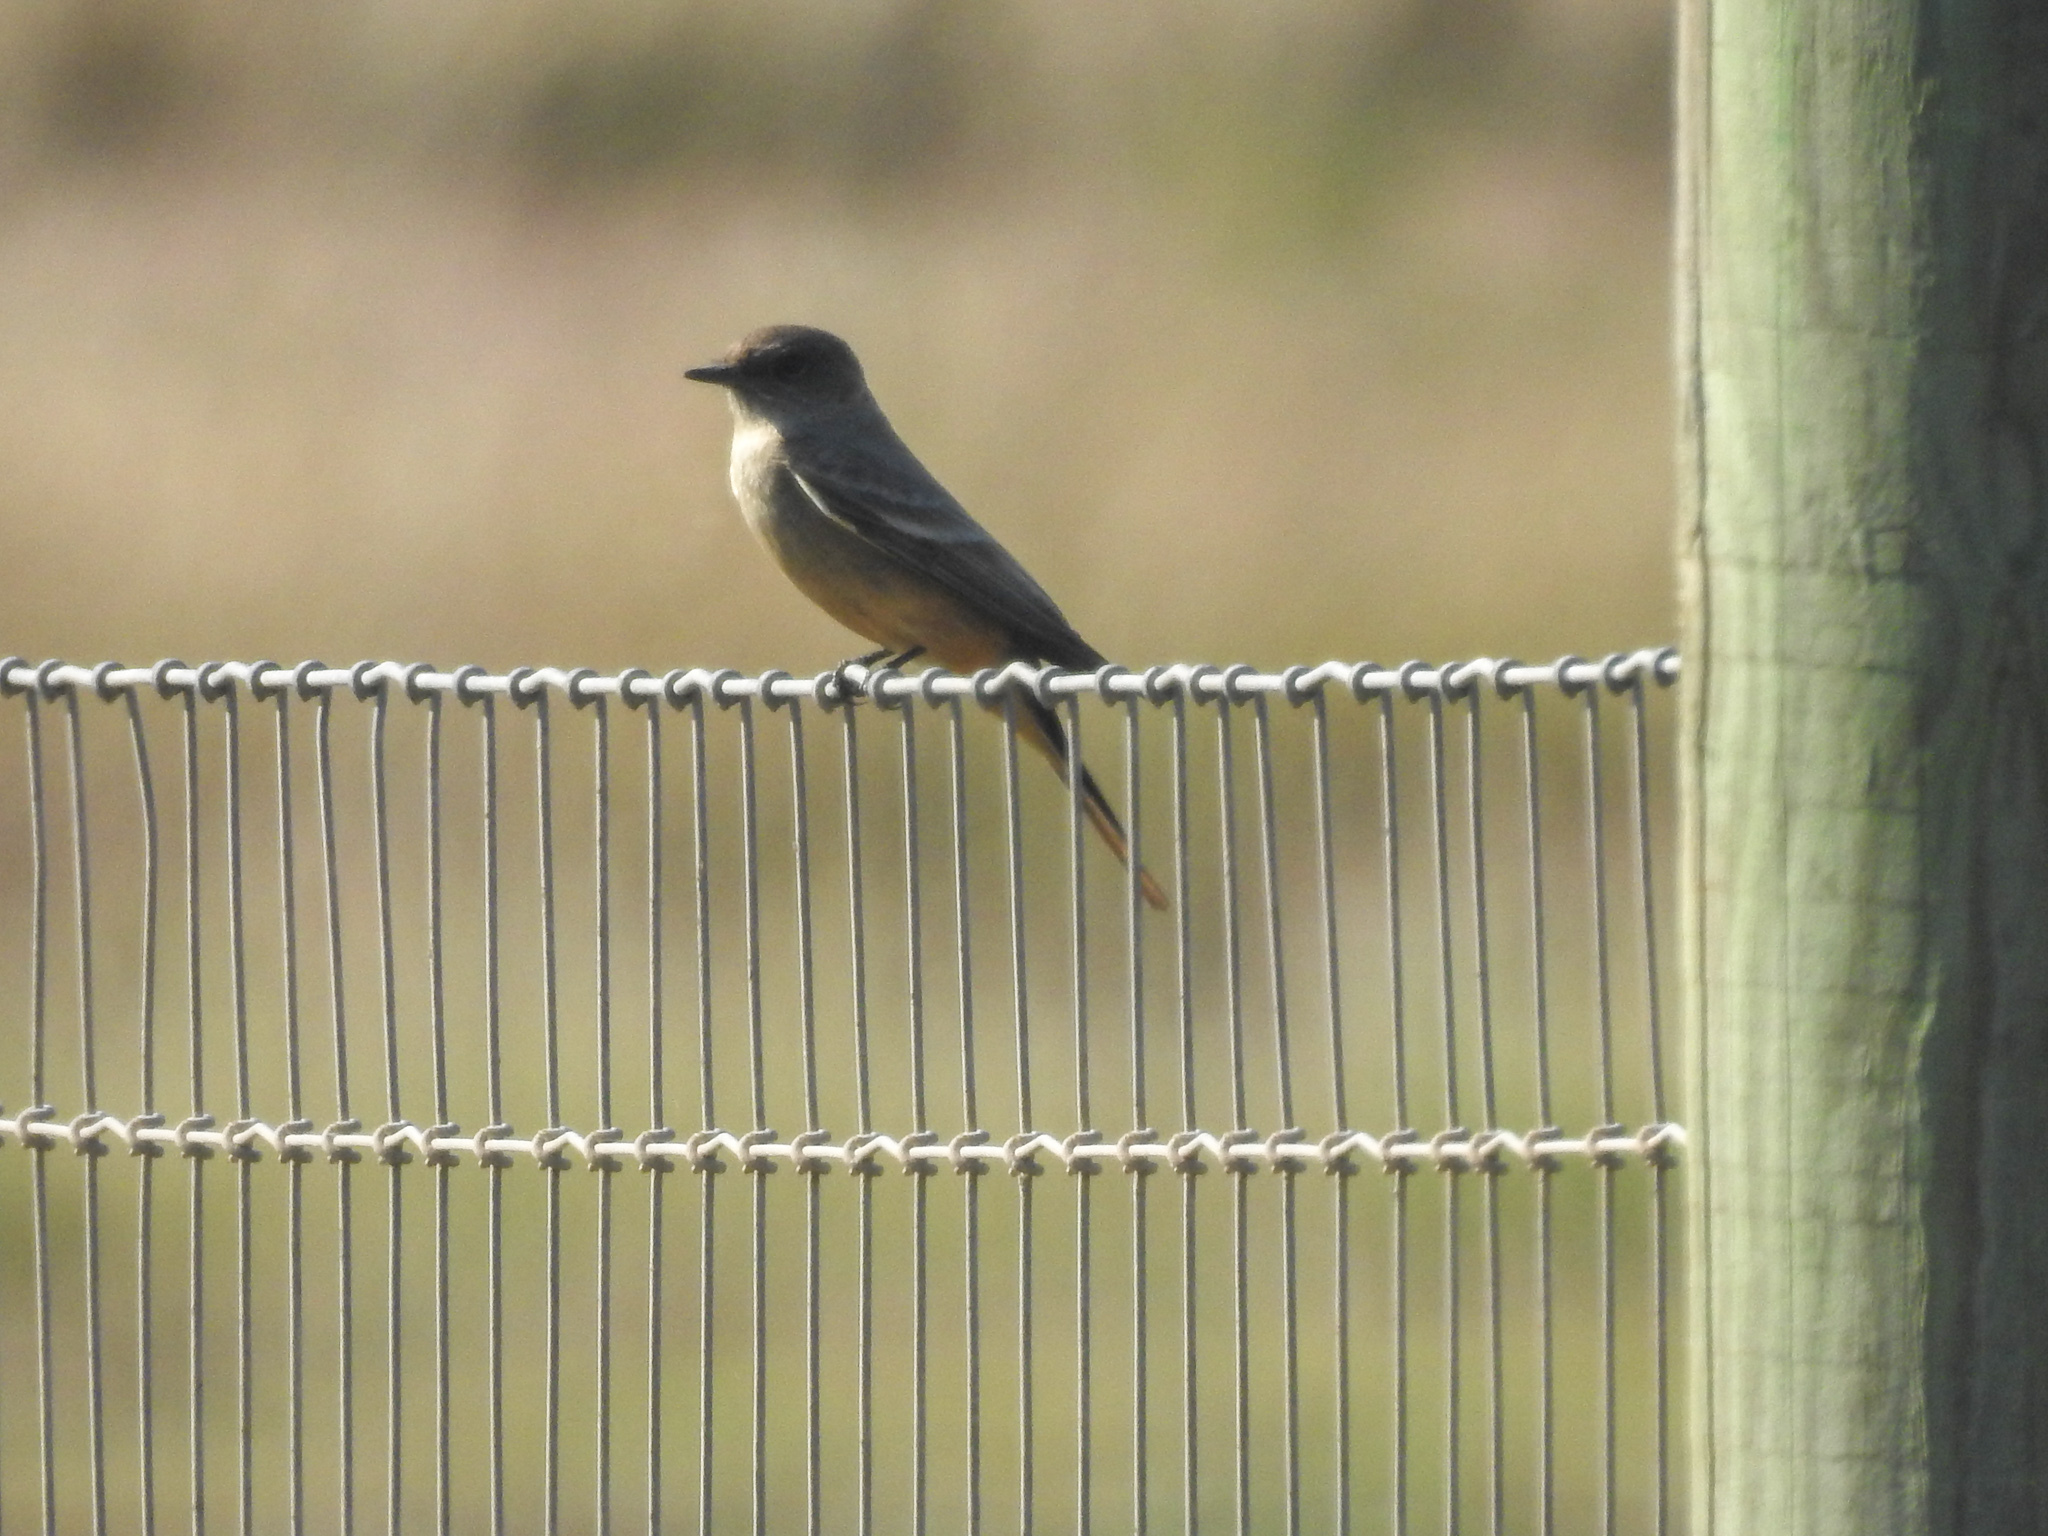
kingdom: Animalia
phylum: Chordata
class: Aves
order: Passeriformes
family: Tyrannidae
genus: Sayornis
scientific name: Sayornis saya
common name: Say's phoebe
